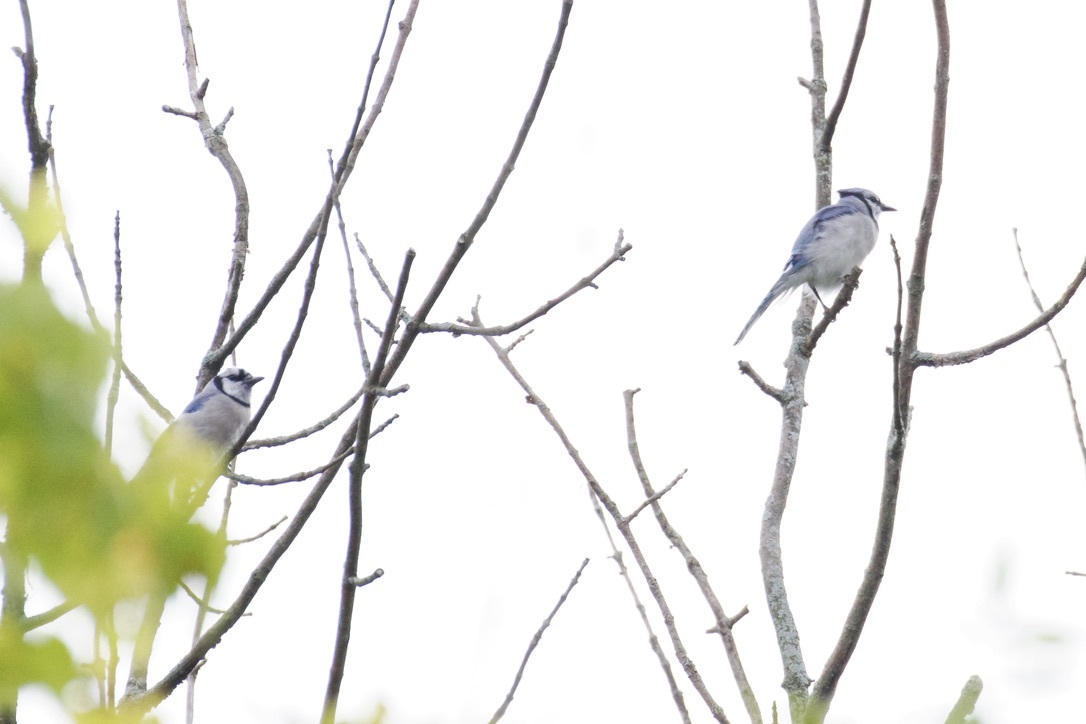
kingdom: Animalia
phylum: Chordata
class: Aves
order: Passeriformes
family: Corvidae
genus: Cyanocitta
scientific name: Cyanocitta cristata
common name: Blue jay
